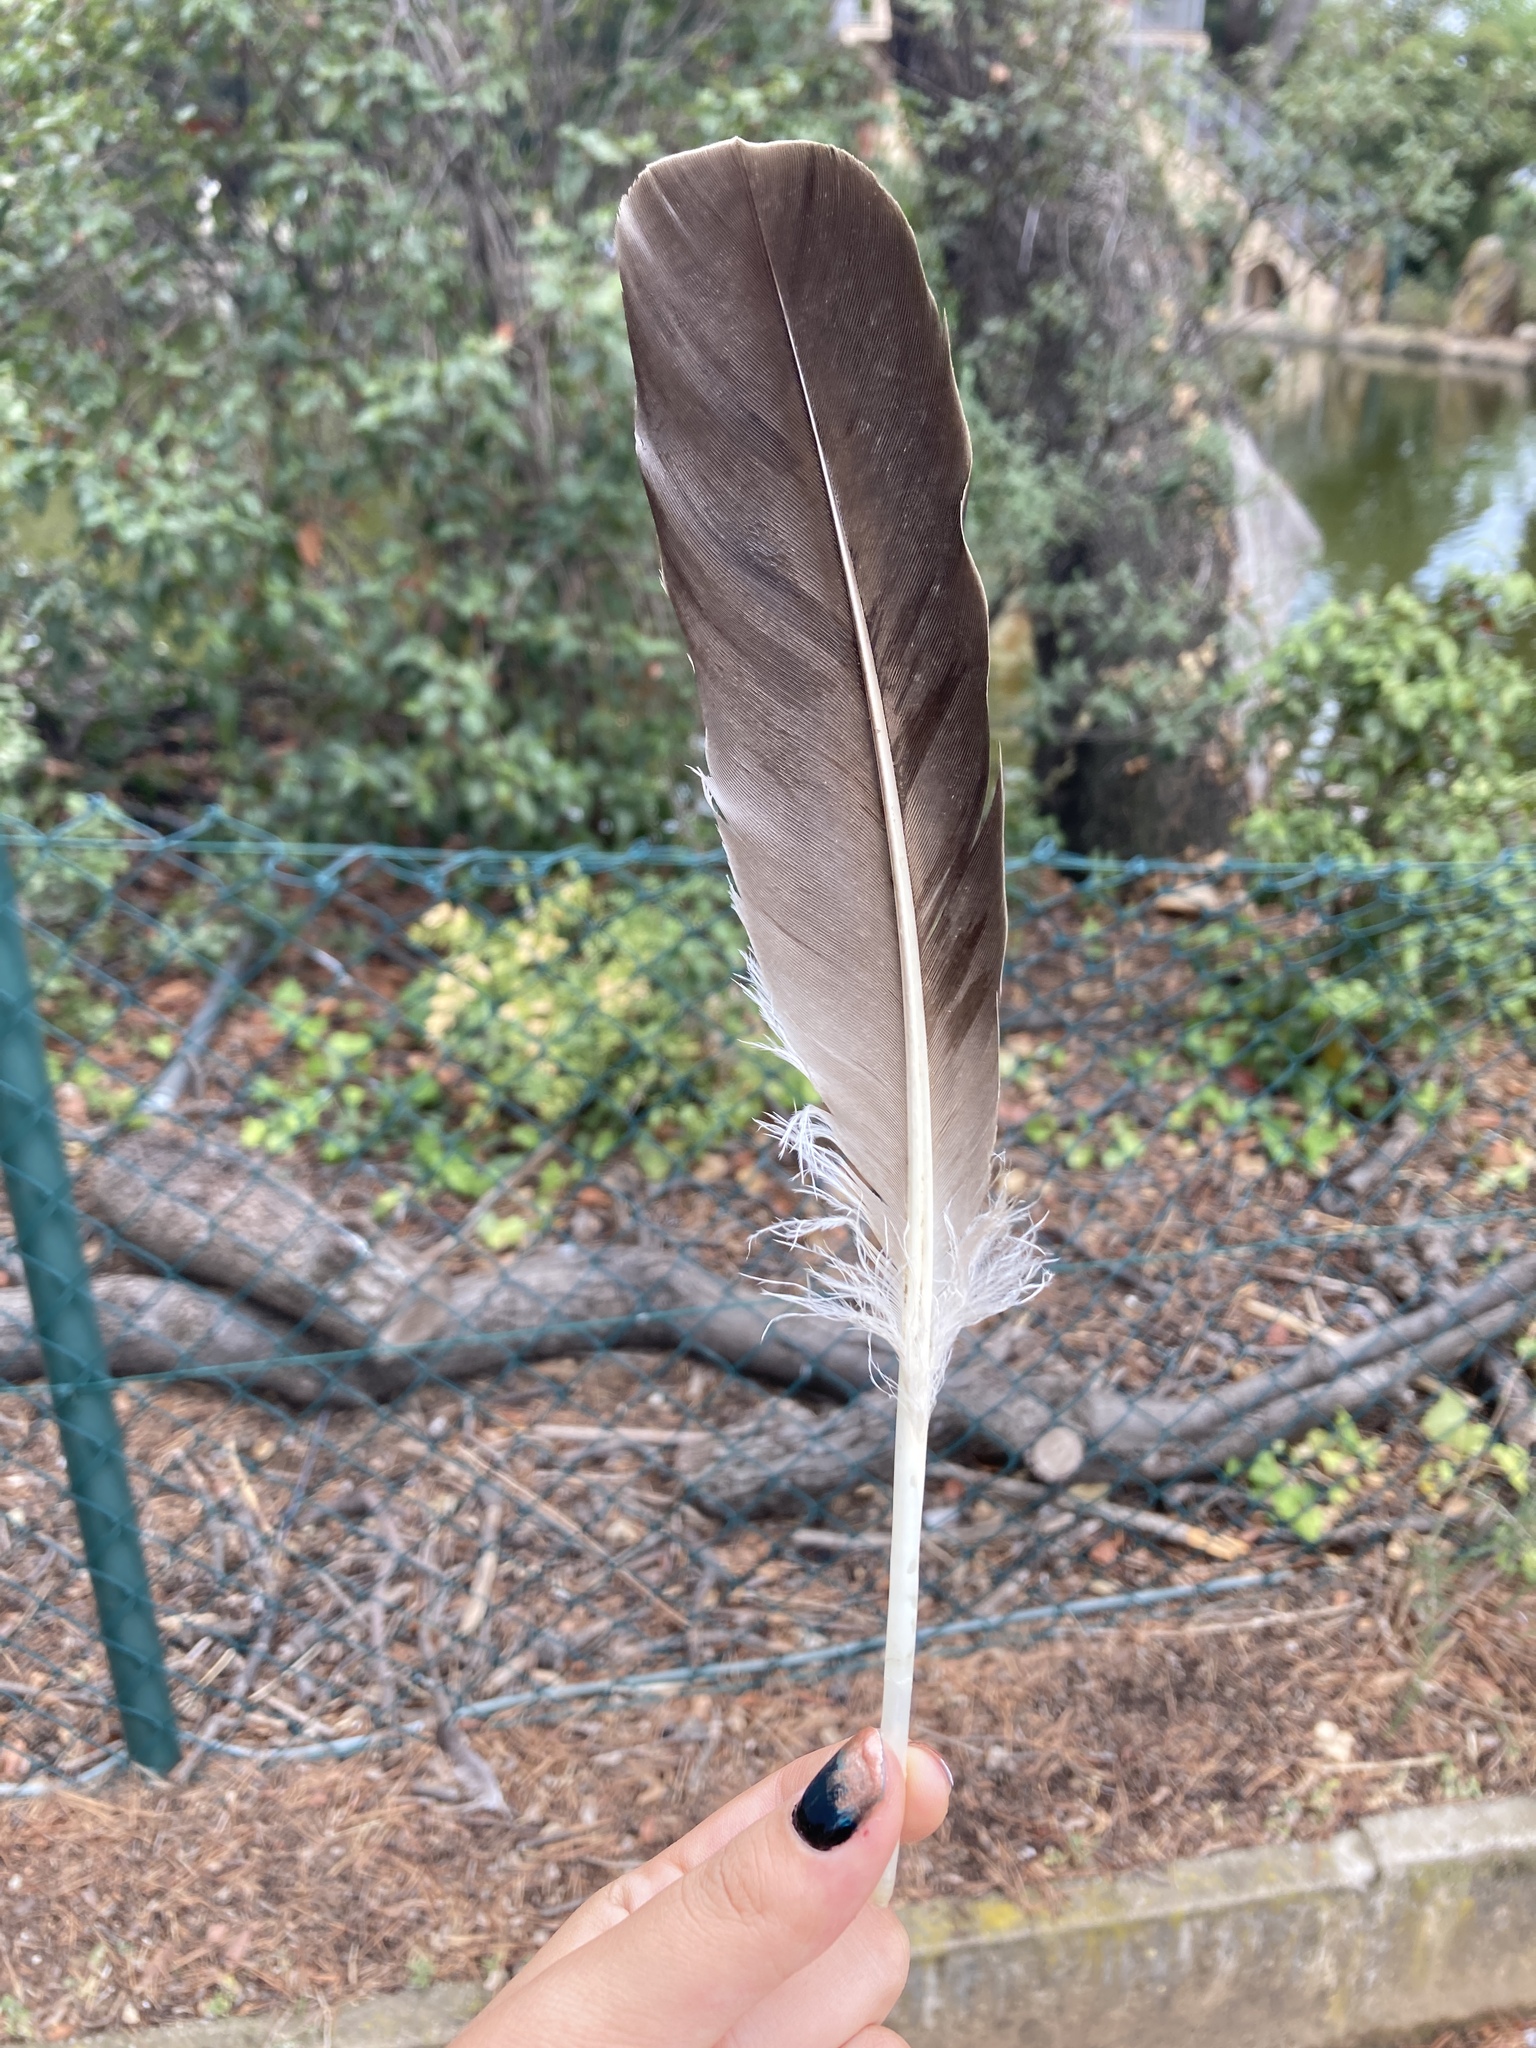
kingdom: Animalia
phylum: Chordata
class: Aves
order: Anseriformes
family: Anatidae
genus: Anser
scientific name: Anser anser
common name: Greylag goose
